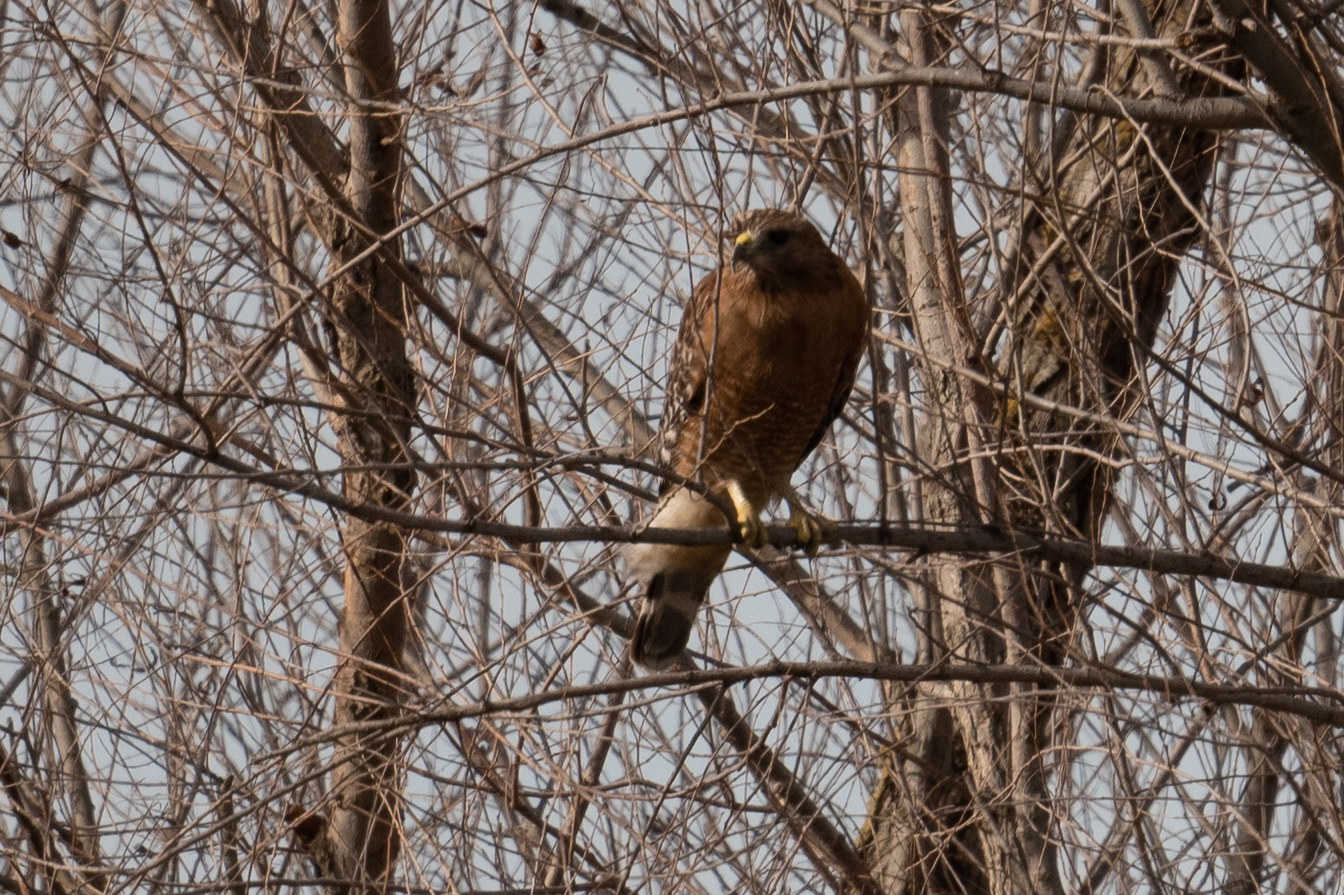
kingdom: Animalia
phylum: Chordata
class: Aves
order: Accipitriformes
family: Accipitridae
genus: Buteo
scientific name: Buteo lineatus
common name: Red-shouldered hawk
